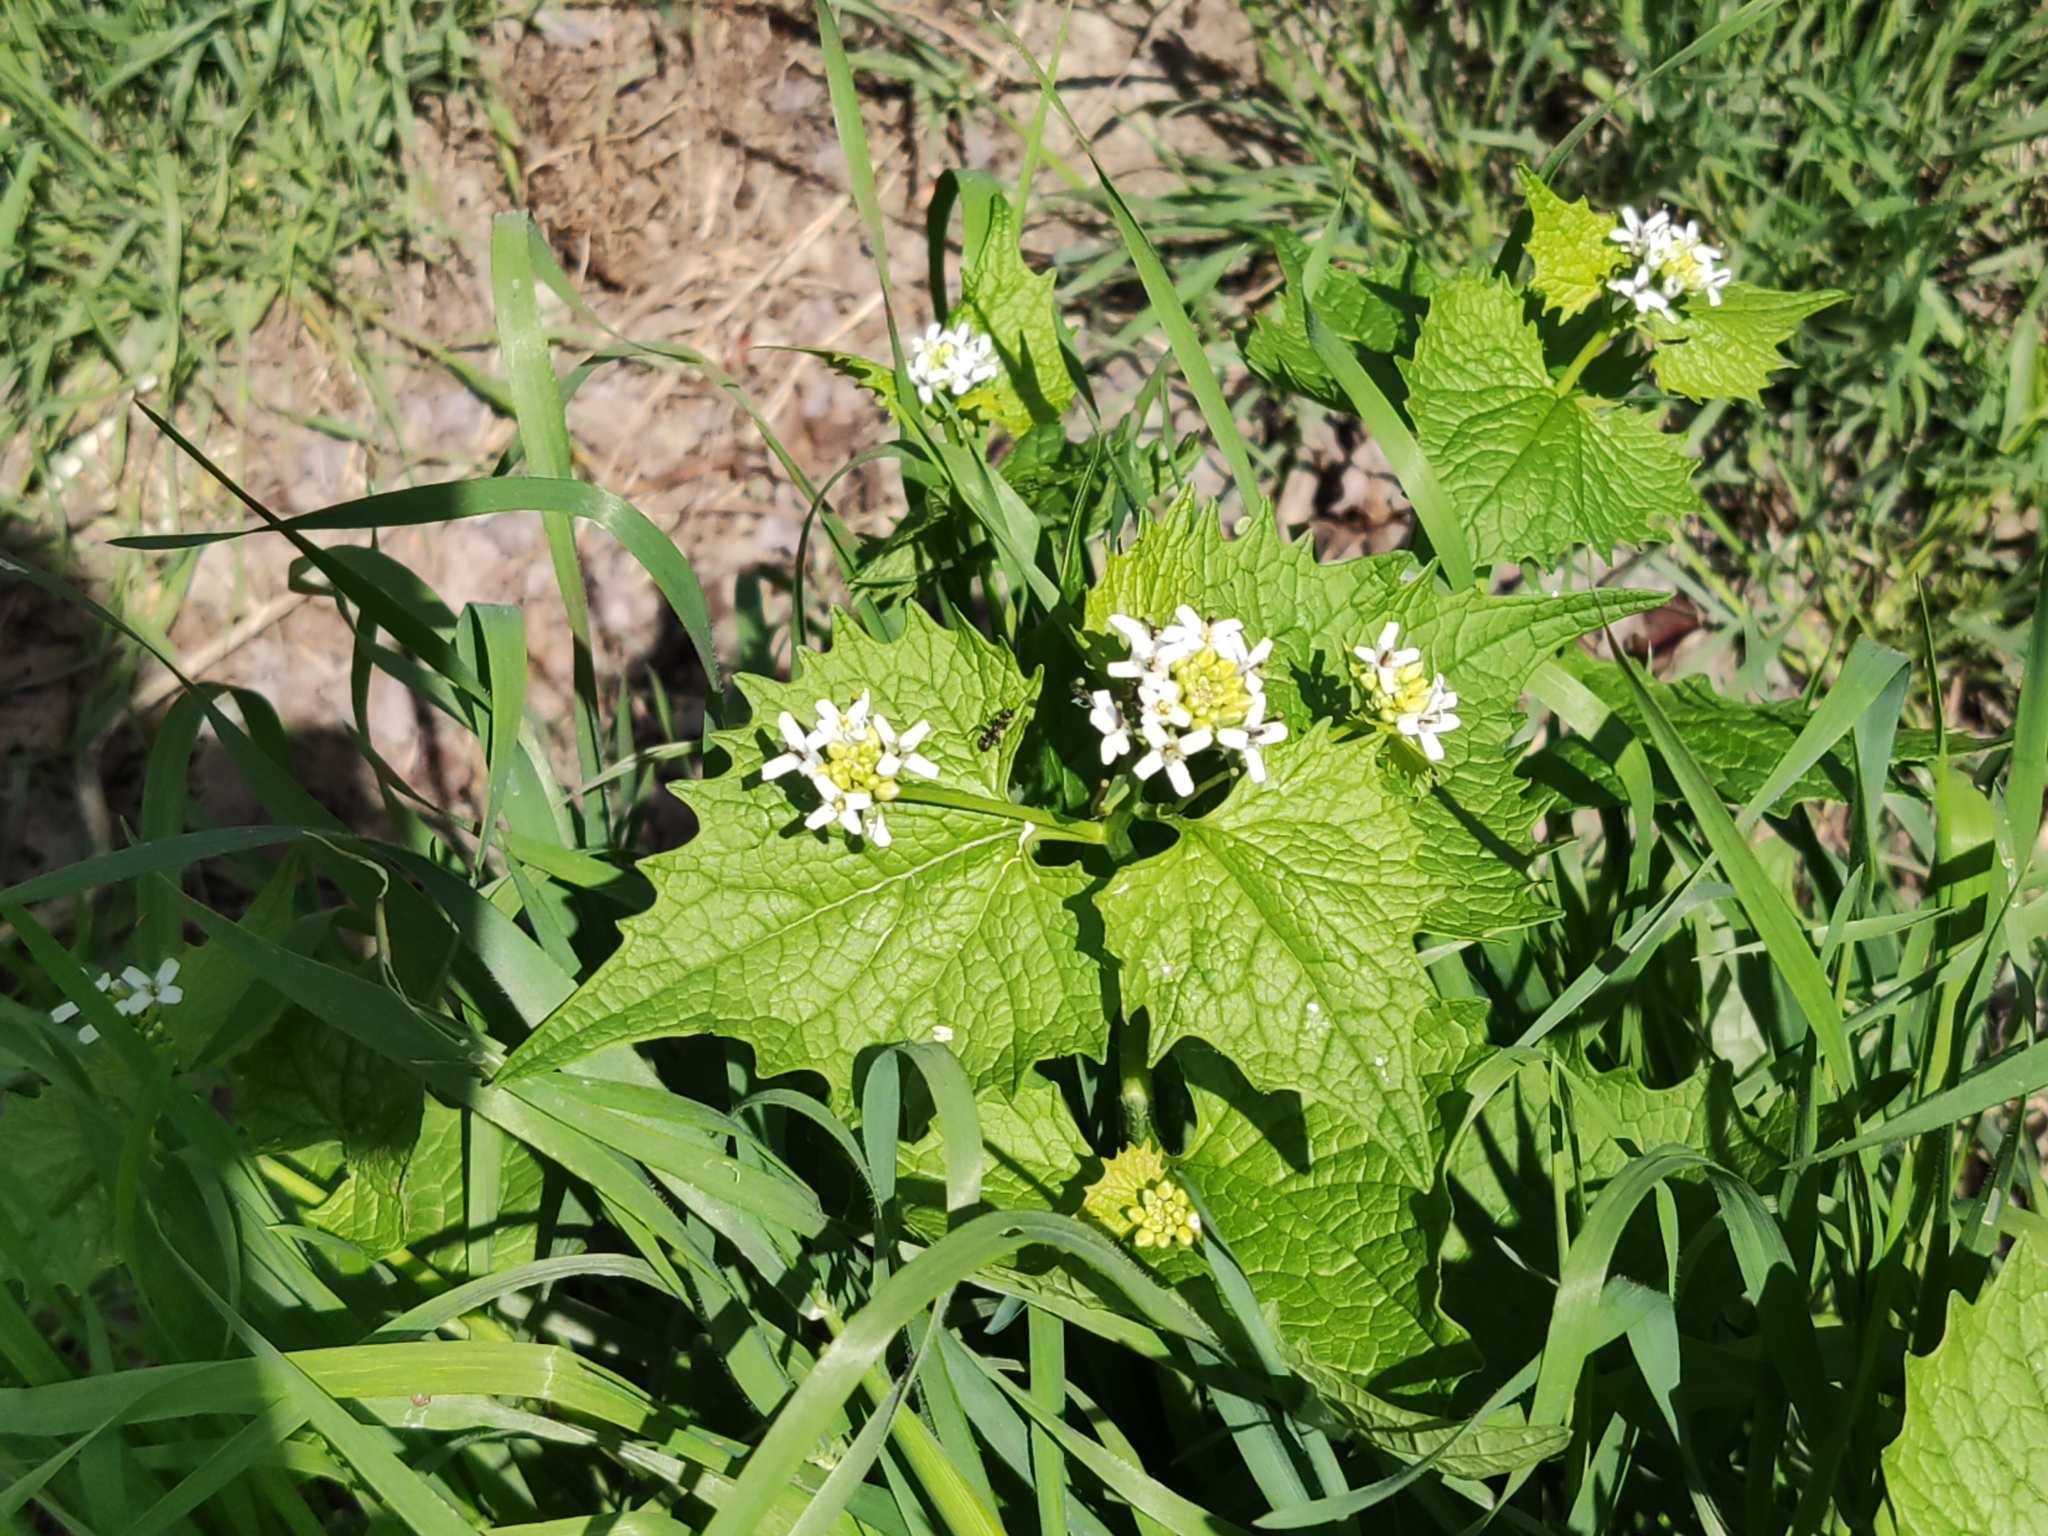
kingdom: Plantae
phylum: Tracheophyta
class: Magnoliopsida
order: Brassicales
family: Brassicaceae
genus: Alliaria
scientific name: Alliaria petiolata
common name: Garlic mustard
